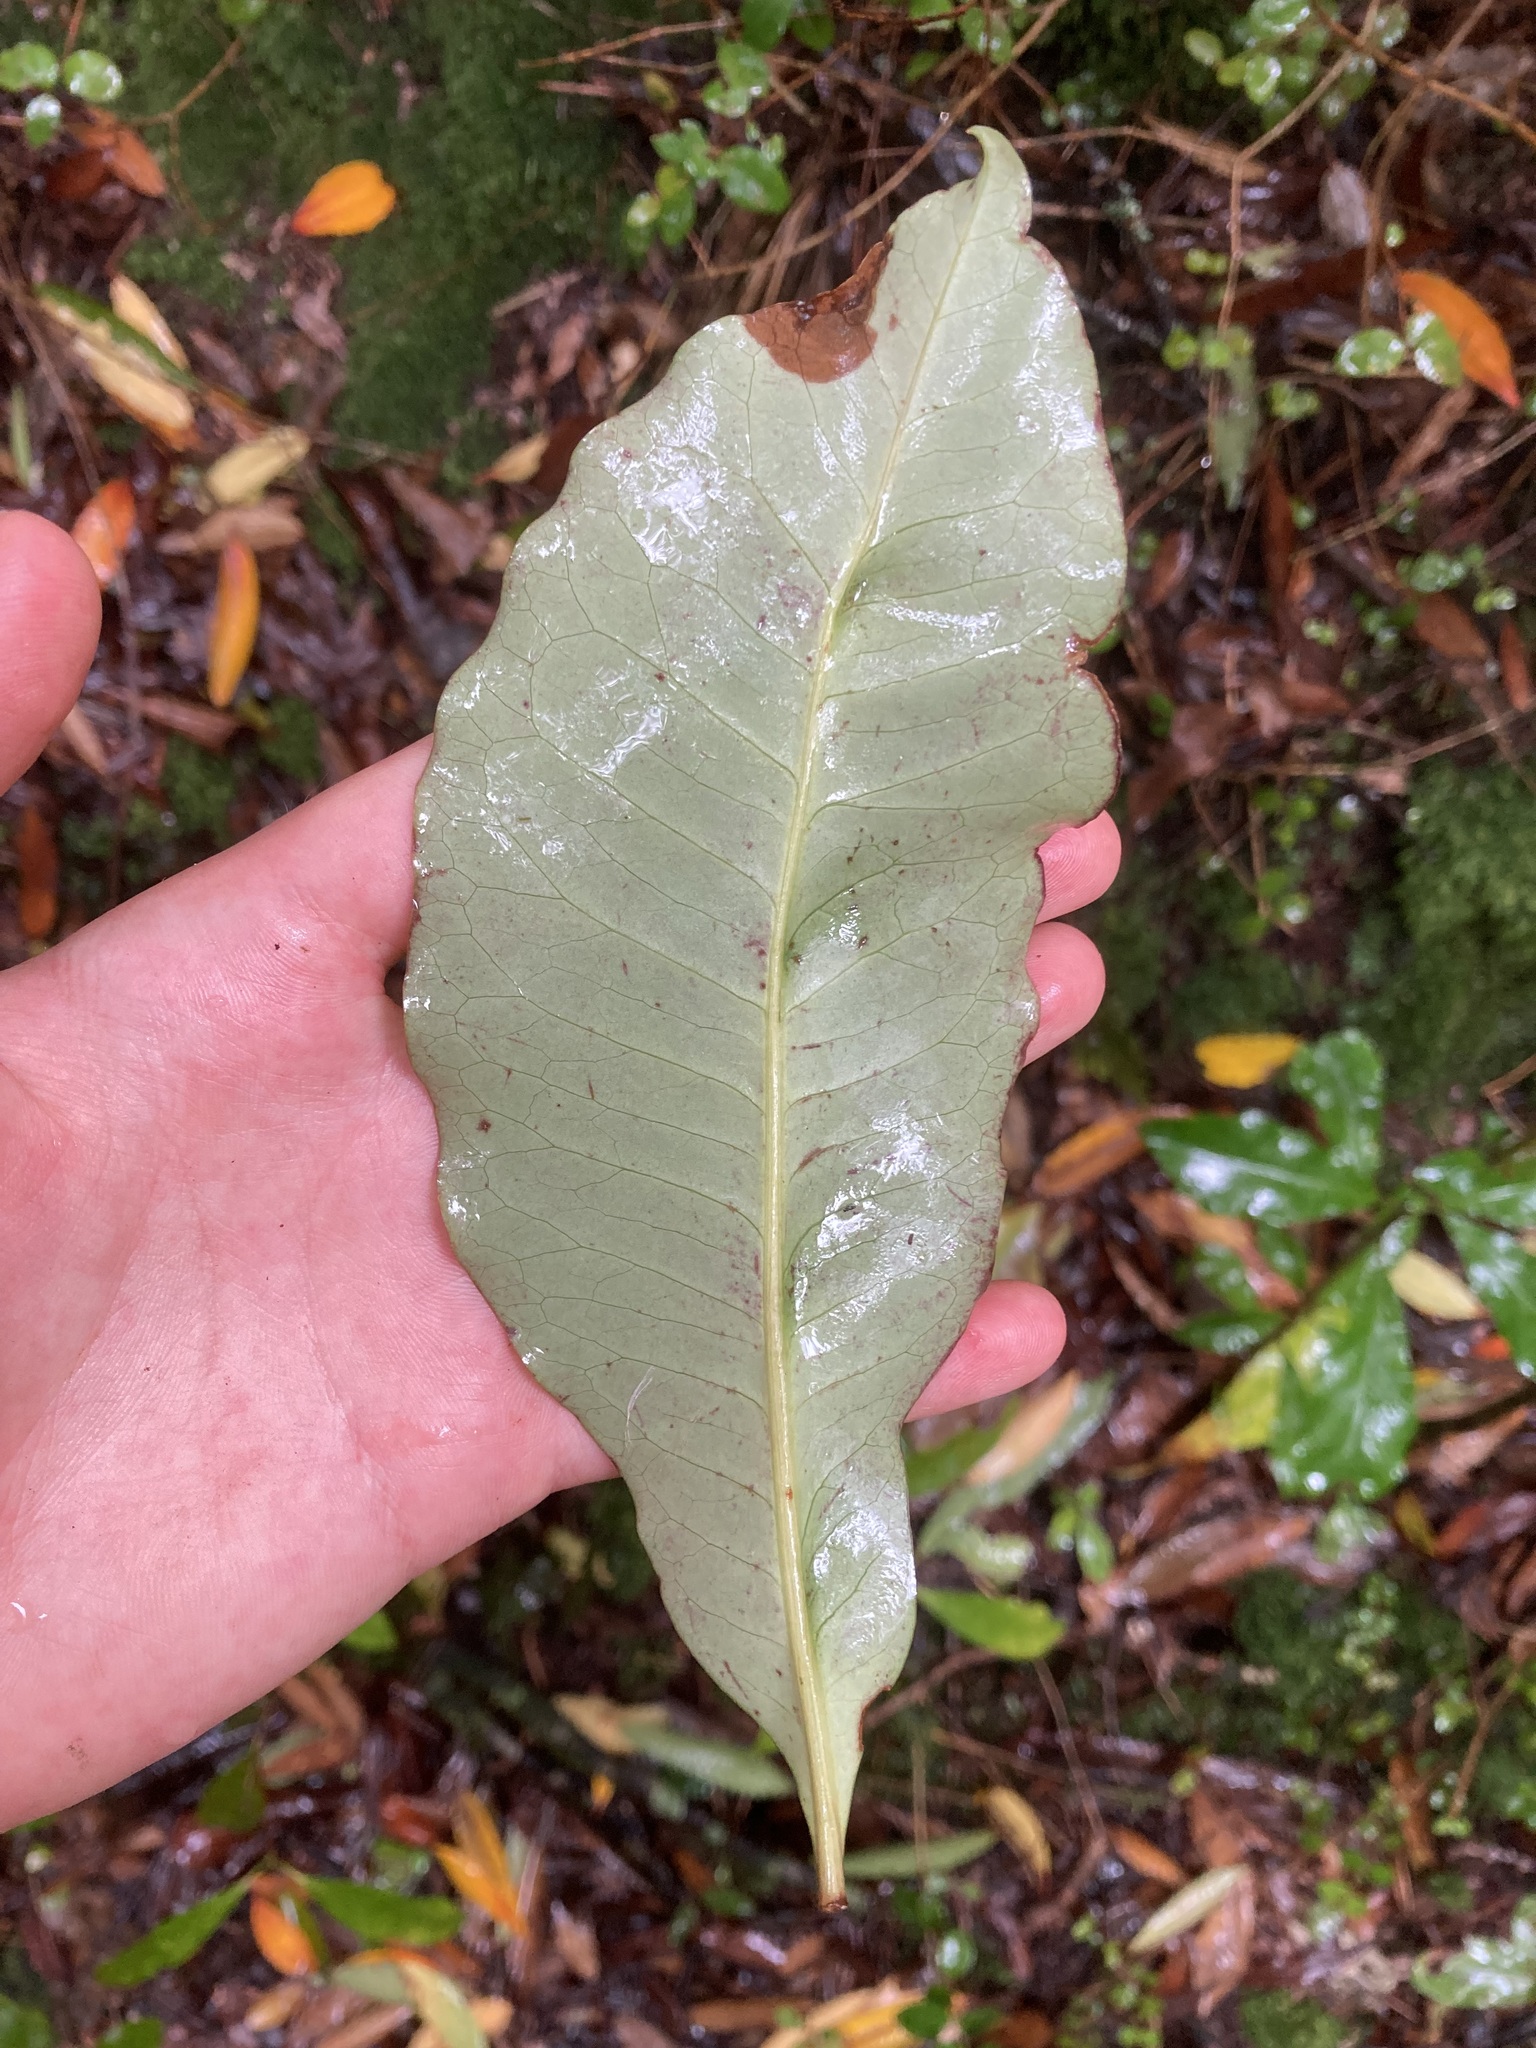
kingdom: Plantae
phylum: Tracheophyta
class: Magnoliopsida
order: Apiales
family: Araliaceae
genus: Raukaua
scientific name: Raukaua edgerleyi
